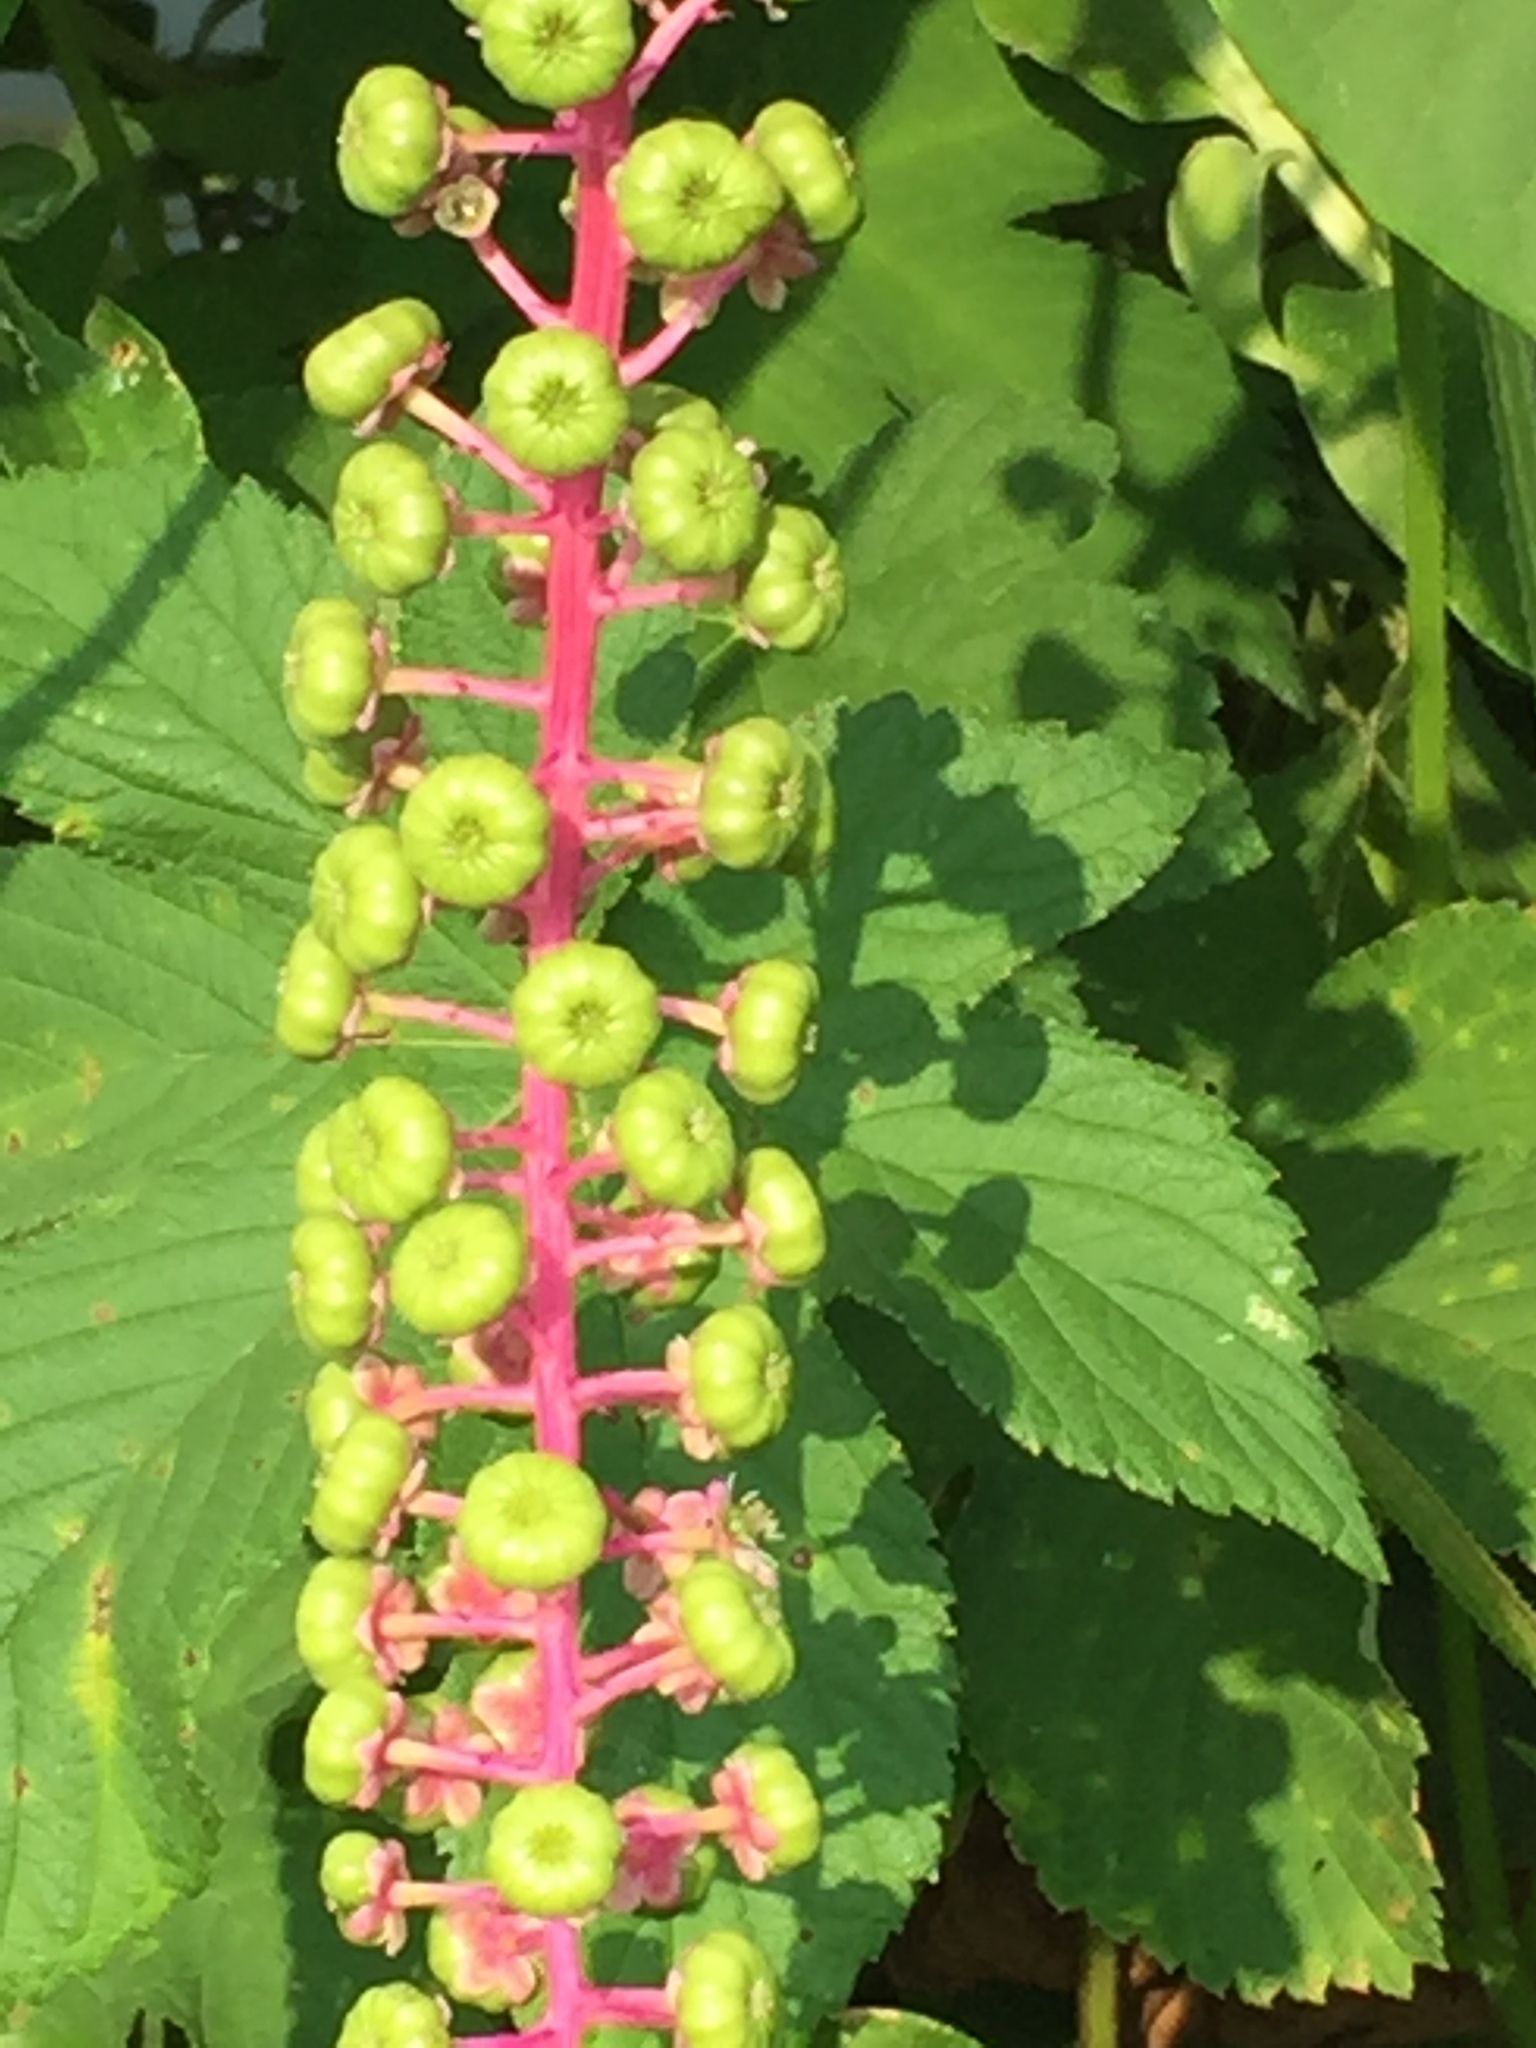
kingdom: Plantae
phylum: Tracheophyta
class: Magnoliopsida
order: Caryophyllales
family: Phytolaccaceae
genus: Phytolacca
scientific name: Phytolacca americana
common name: American pokeweed
